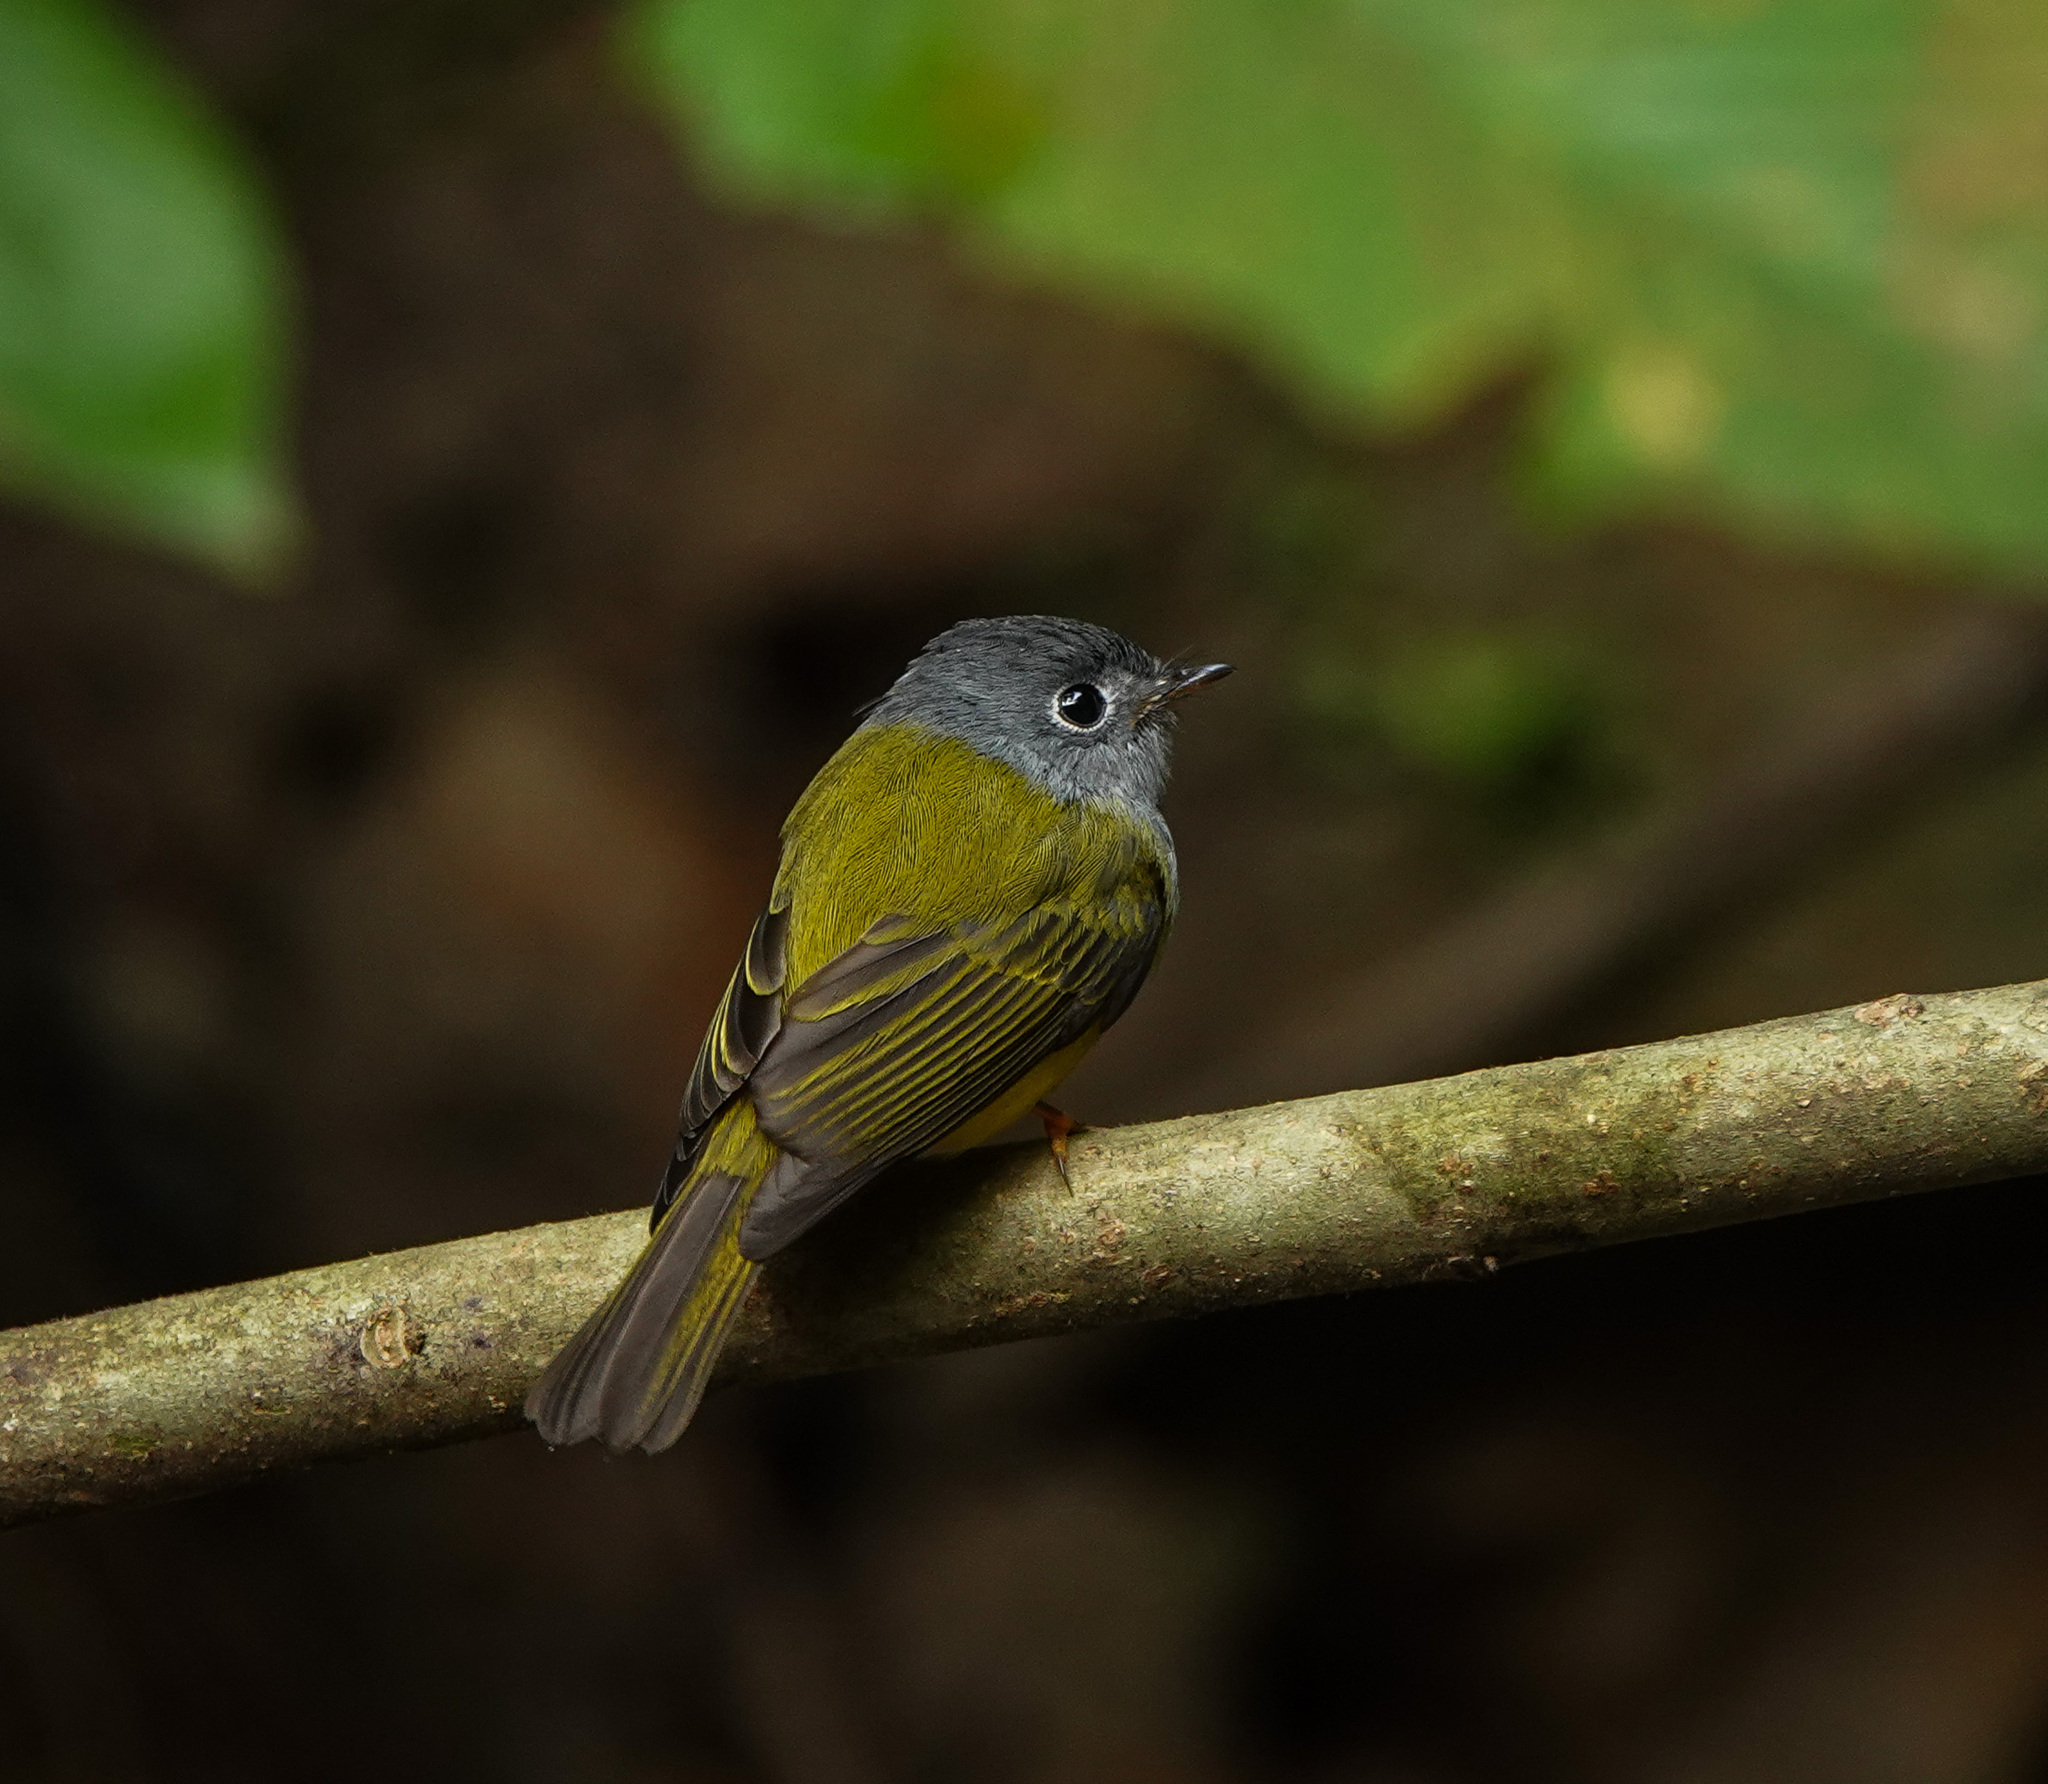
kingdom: Animalia
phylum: Chordata
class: Aves
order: Passeriformes
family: Stenostiridae
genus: Culicicapa
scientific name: Culicicapa ceylonensis
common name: Grey-headed canary-flycatcher
